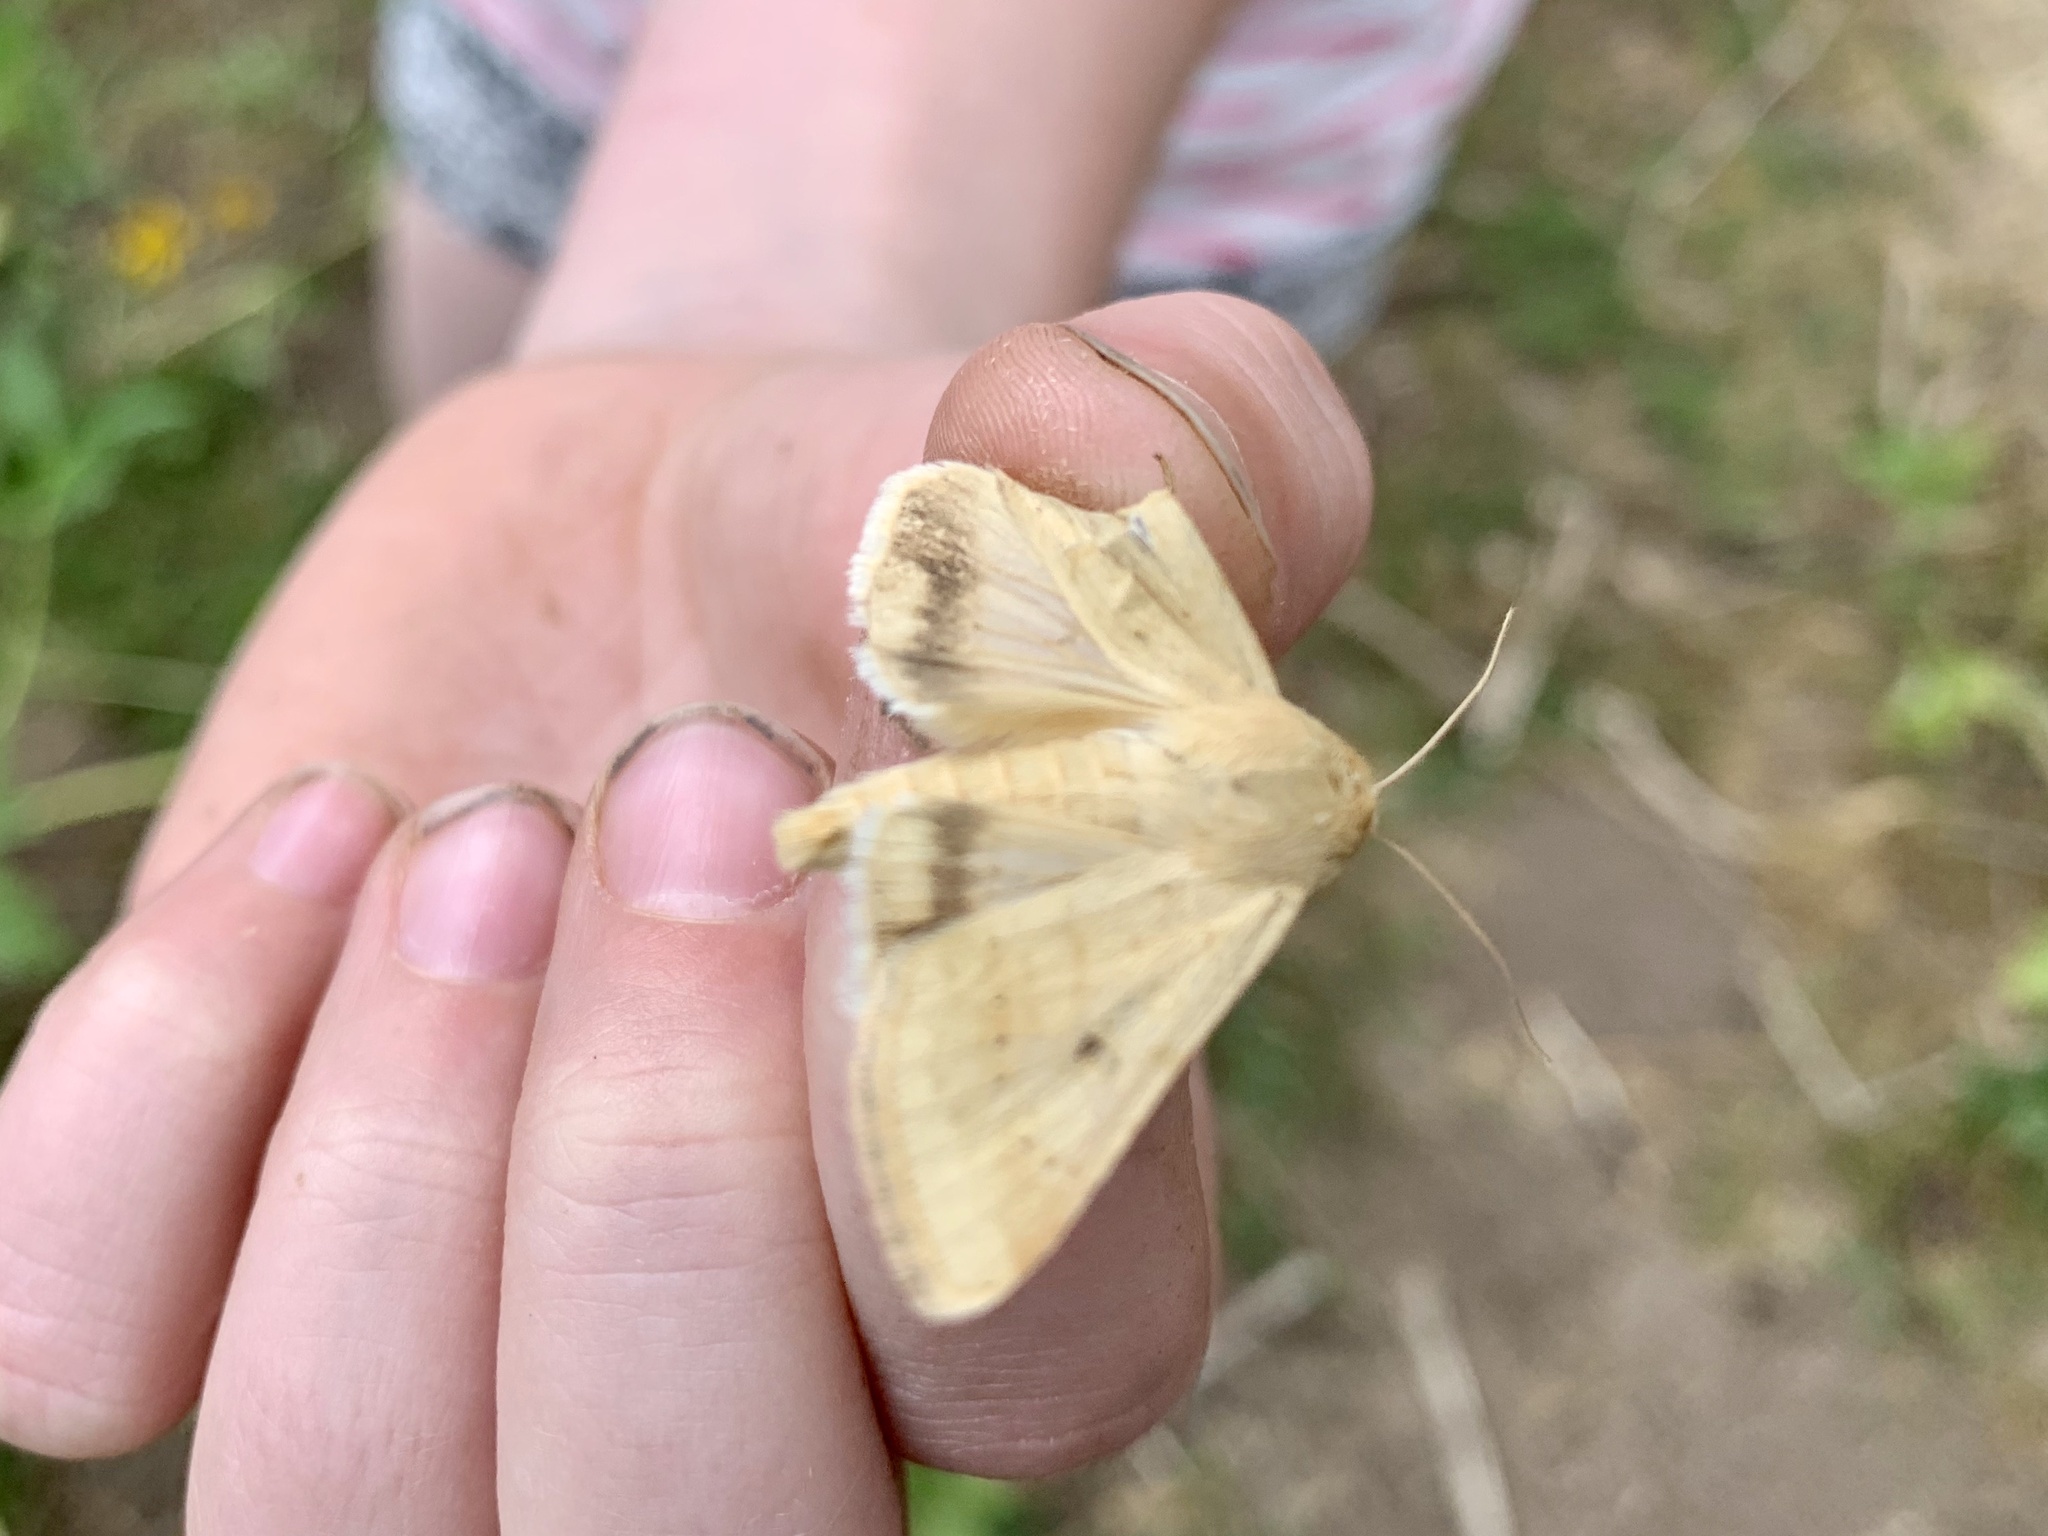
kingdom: Animalia
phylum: Arthropoda
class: Insecta
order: Lepidoptera
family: Noctuidae
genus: Helicoverpa
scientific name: Helicoverpa zea
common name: Bollworm
